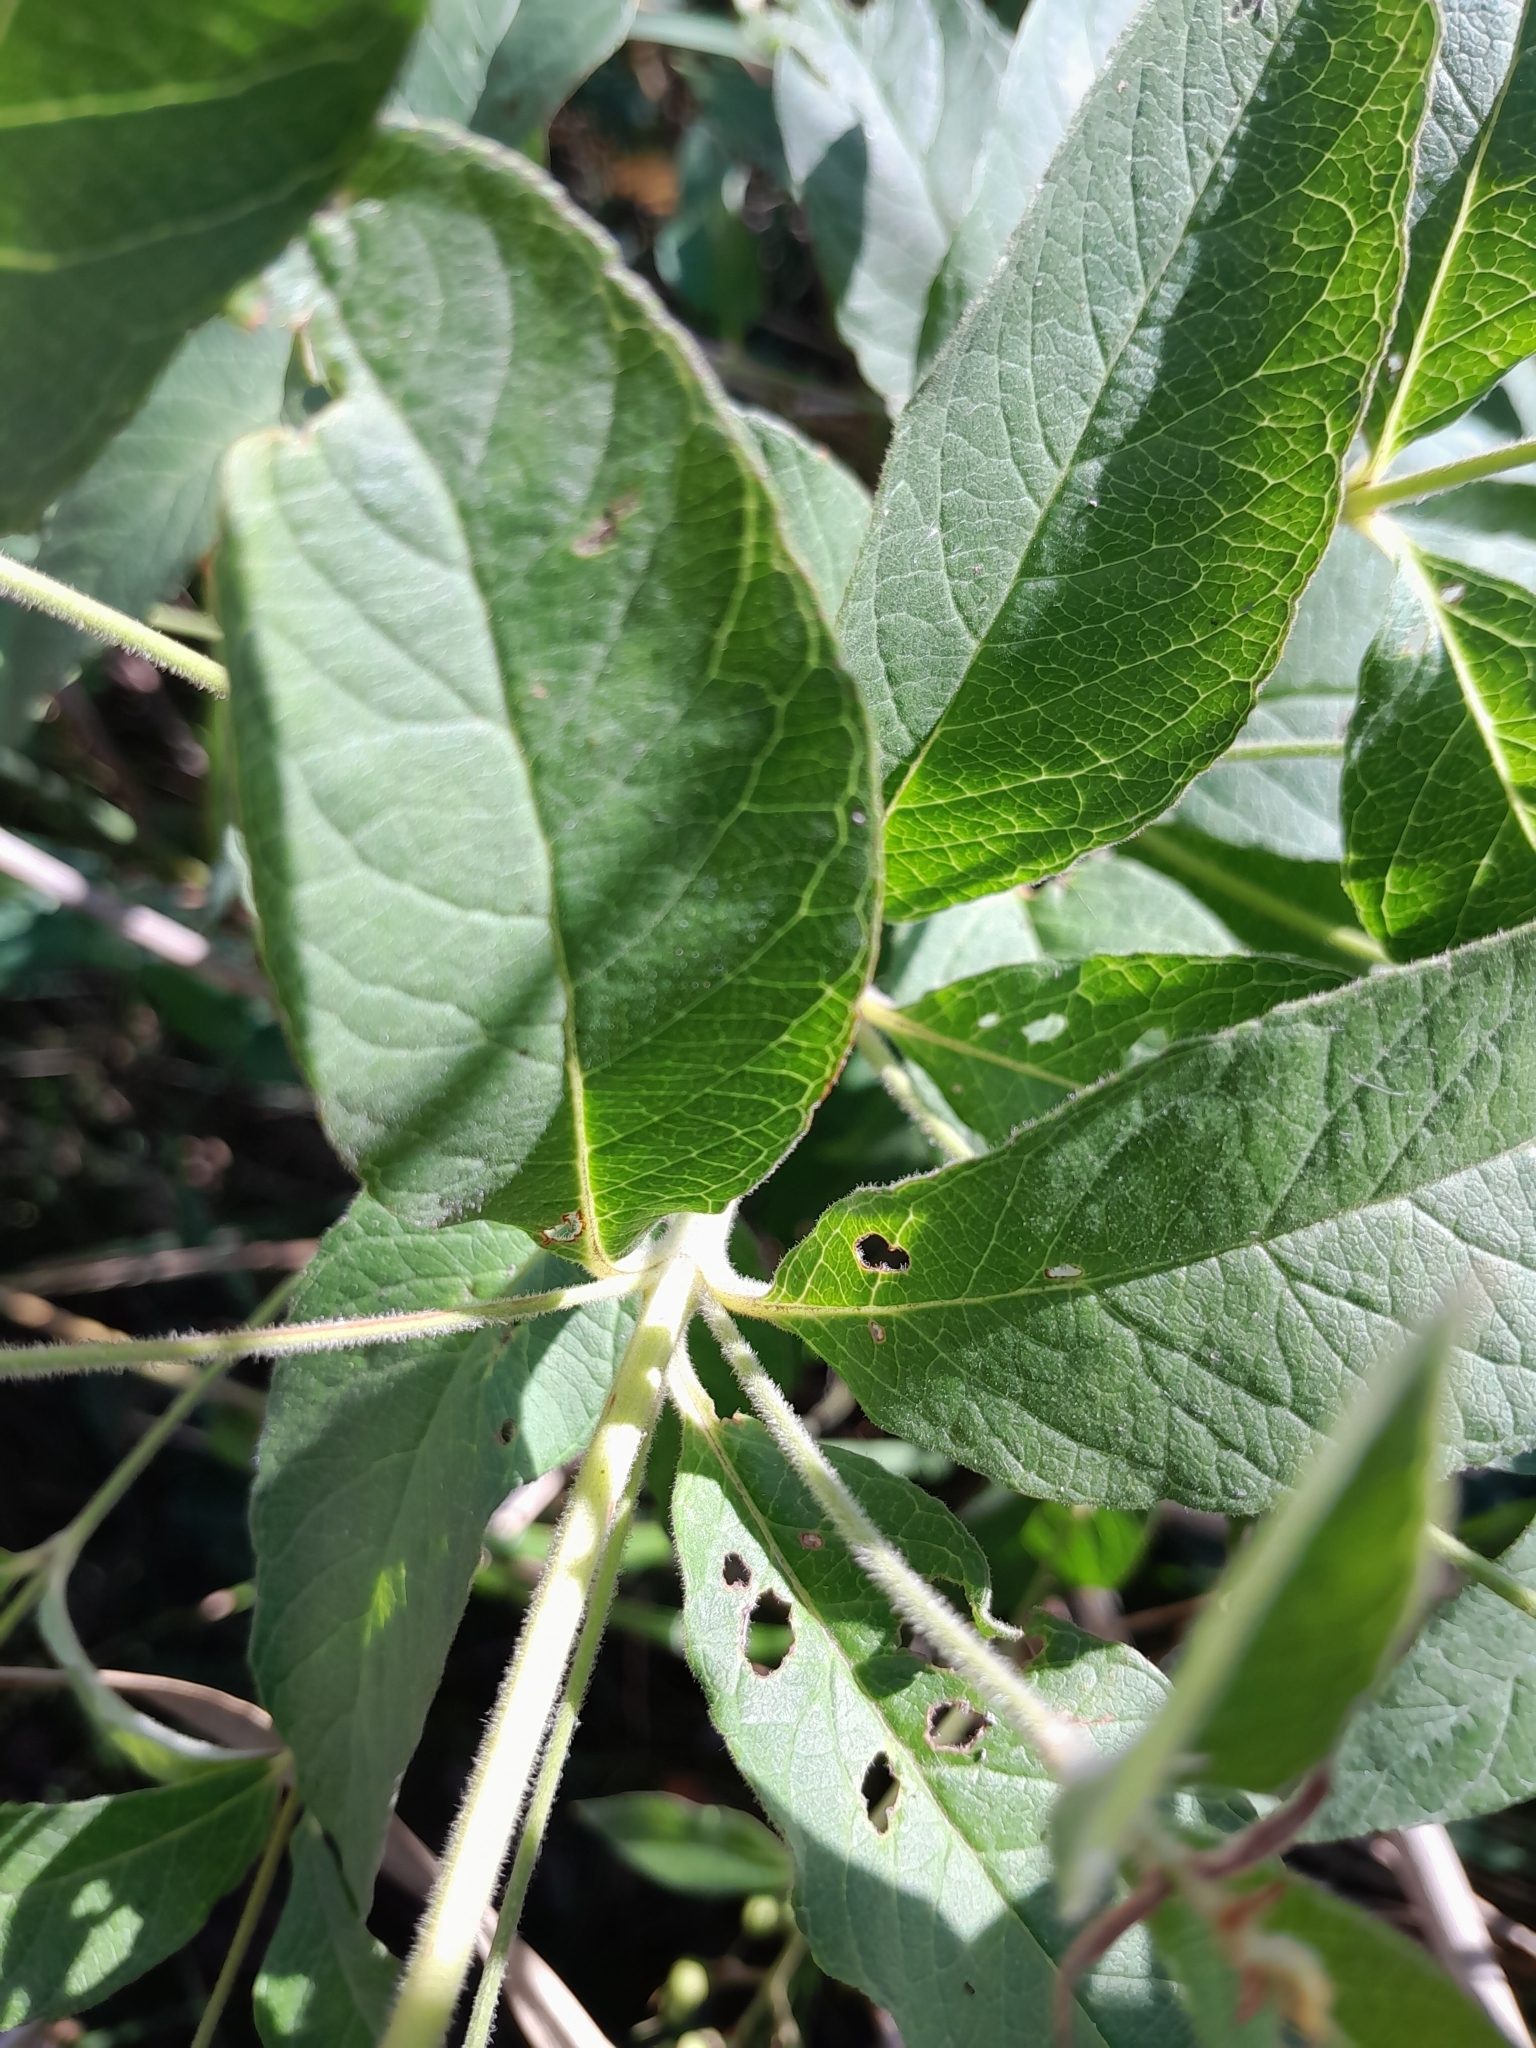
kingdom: Plantae
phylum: Tracheophyta
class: Magnoliopsida
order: Ericales
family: Primulaceae
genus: Lysimachia
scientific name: Lysimachia vulgaris
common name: Yellow loosestrife
